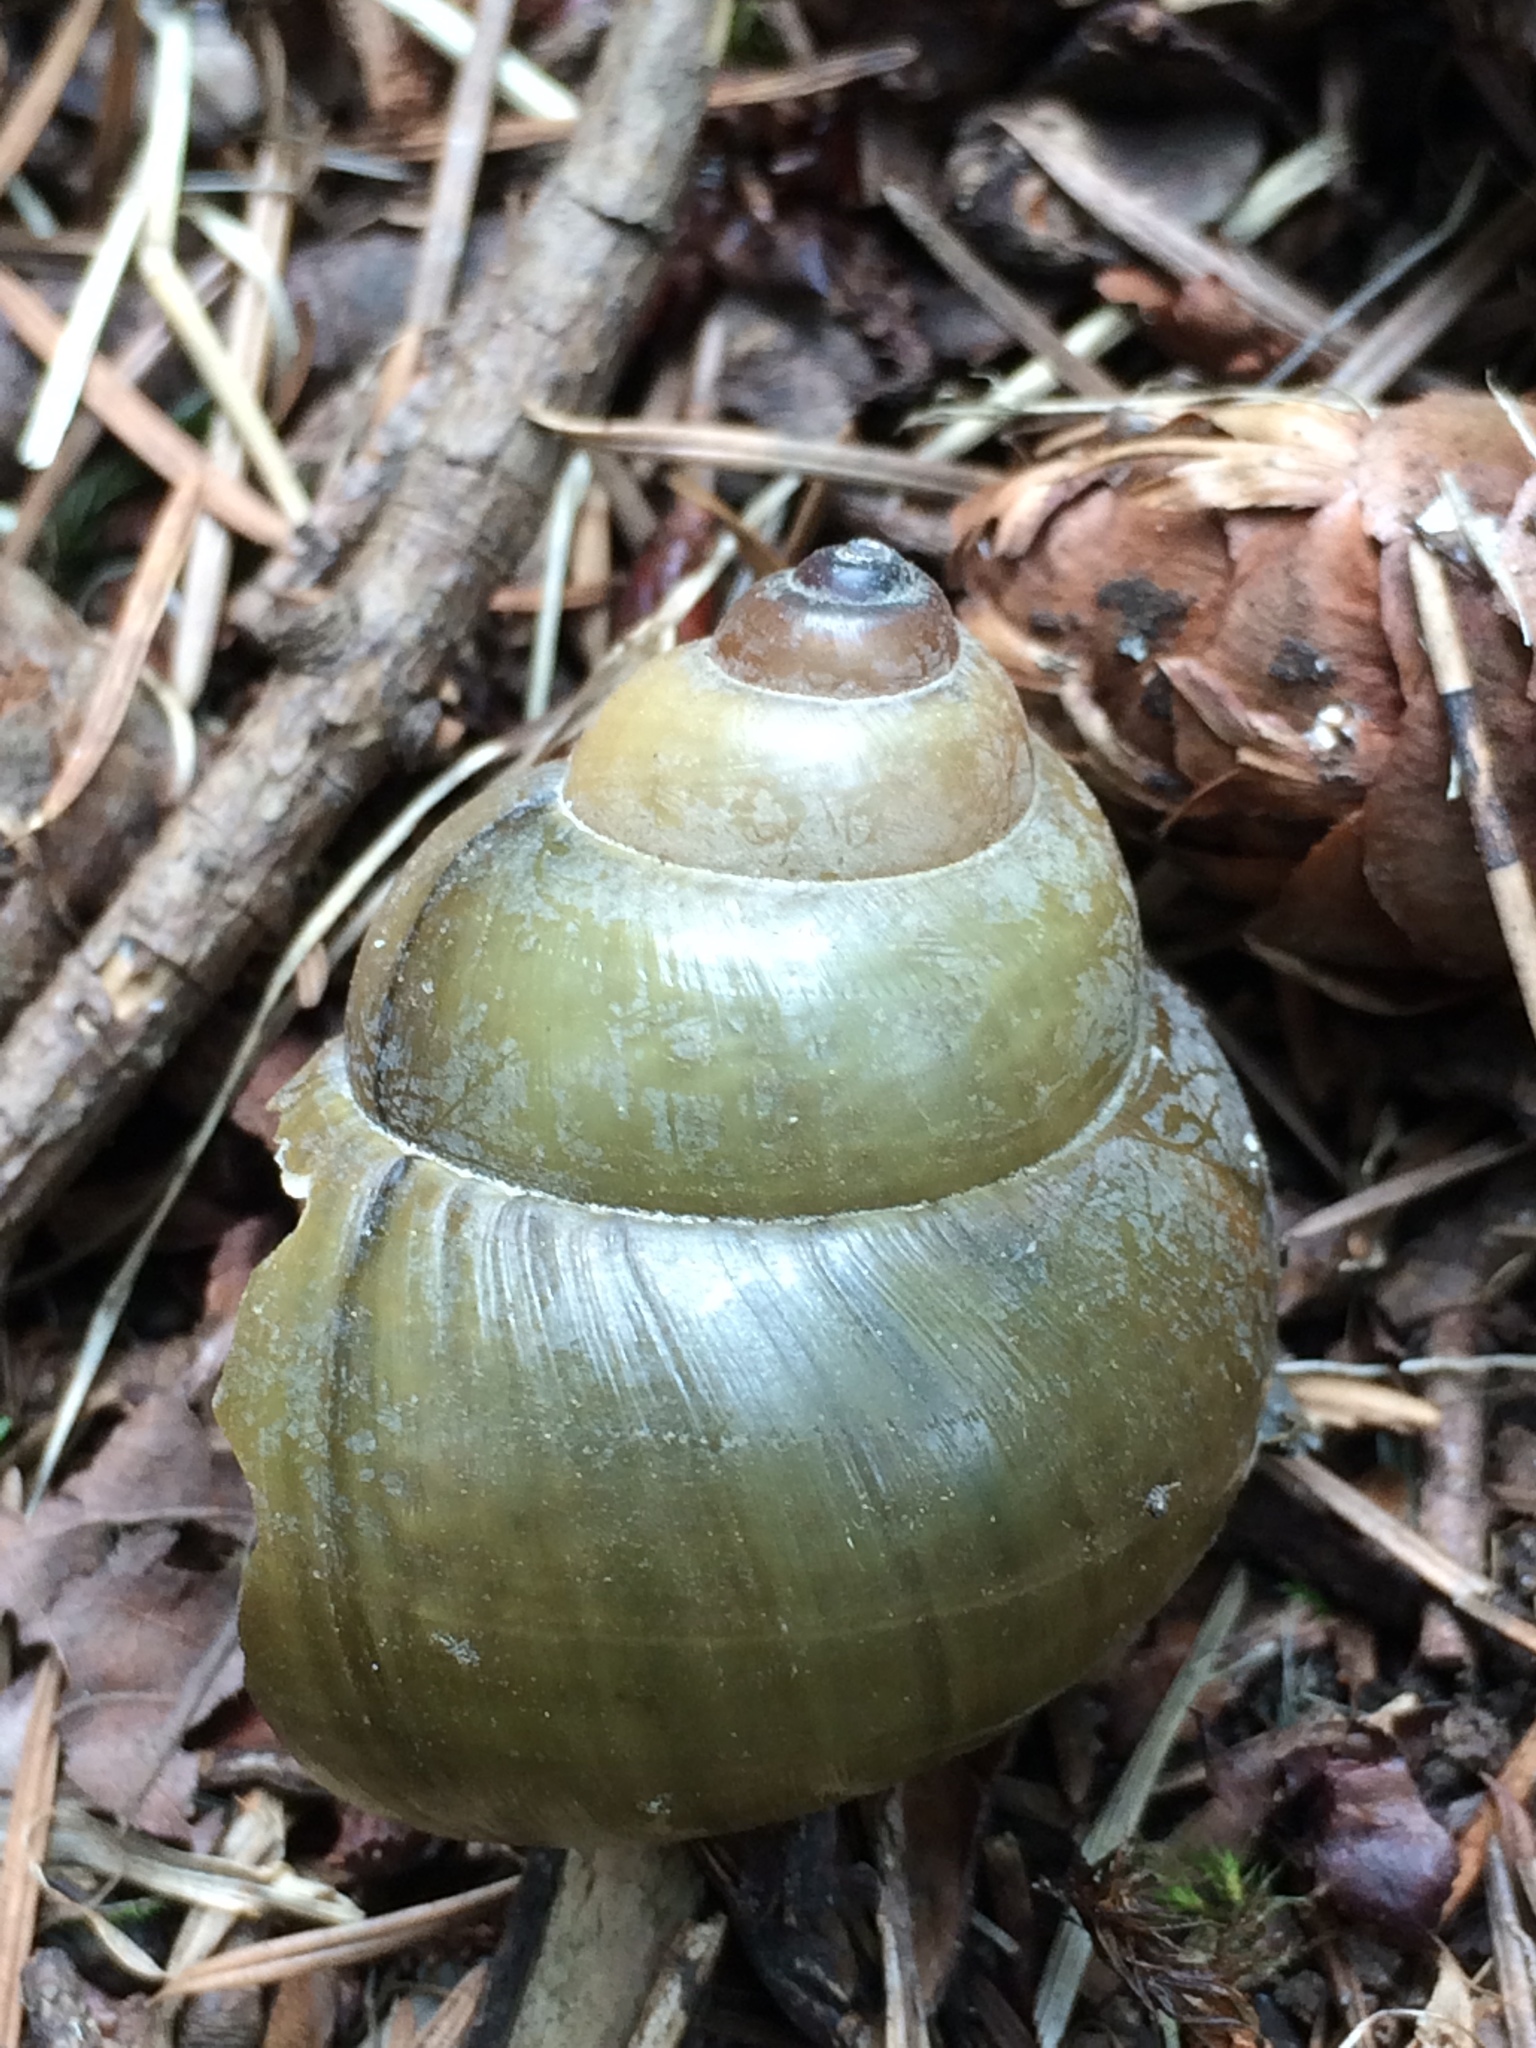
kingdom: Animalia
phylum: Mollusca
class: Gastropoda
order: Architaenioglossa
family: Viviparidae
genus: Cipangopaludina
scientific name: Cipangopaludina chinensis
